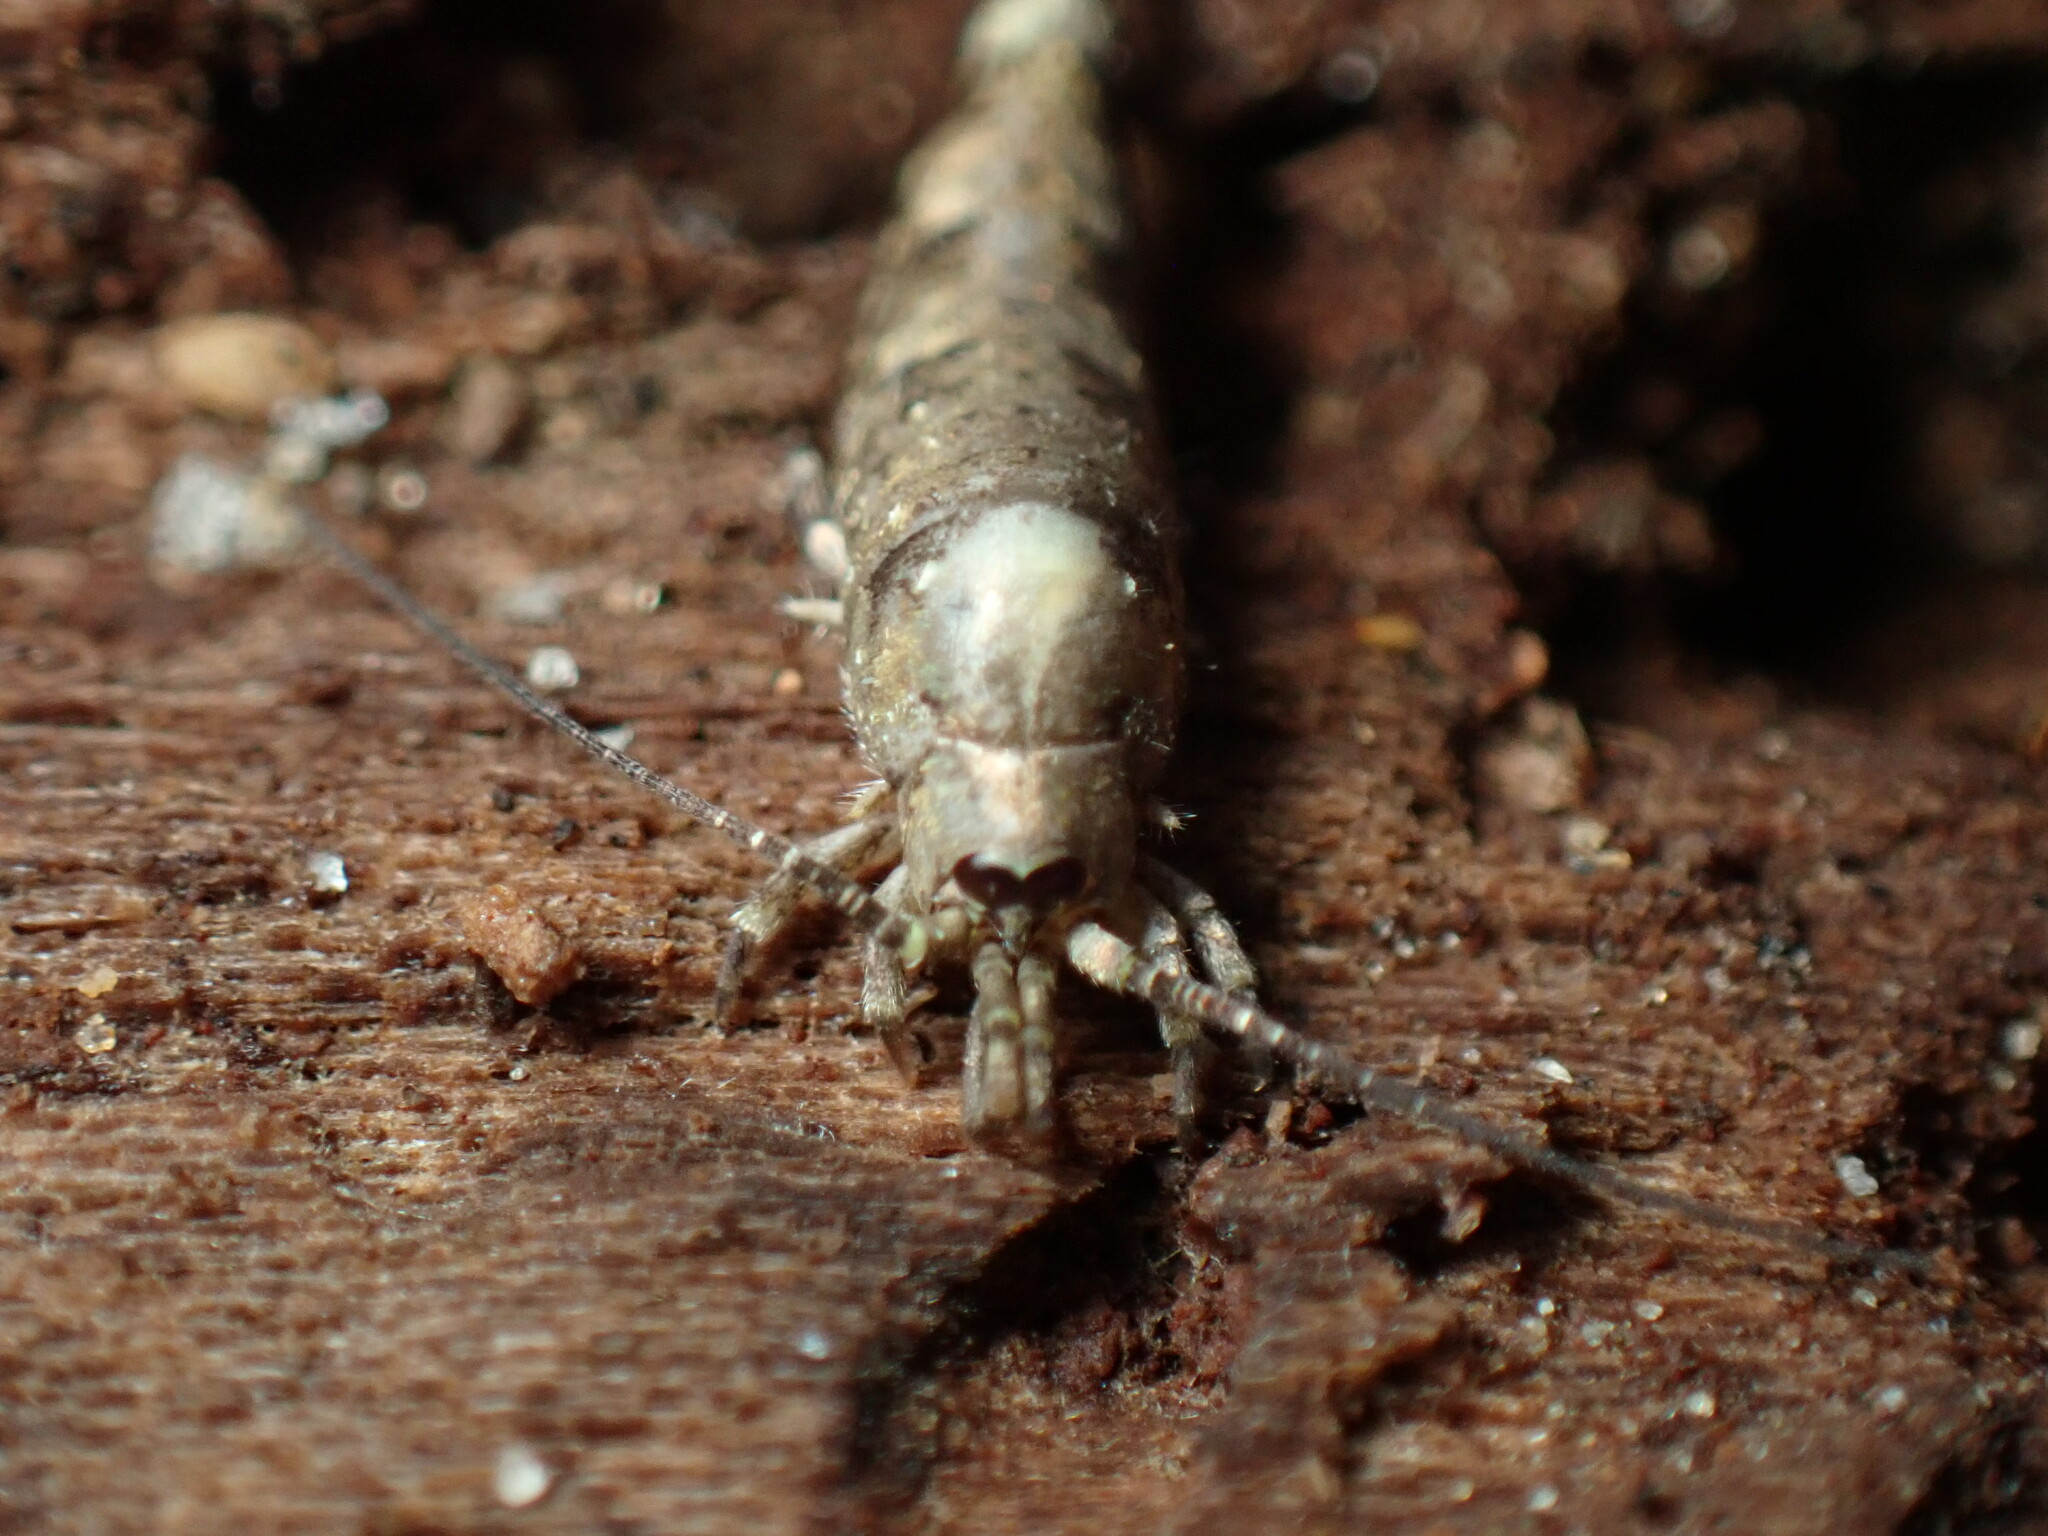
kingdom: Animalia
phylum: Arthropoda
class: Insecta
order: Archaeognatha
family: Machilidae
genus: Trigoniophthalmus
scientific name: Trigoniophthalmus alternatus
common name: Jumping bristletail
